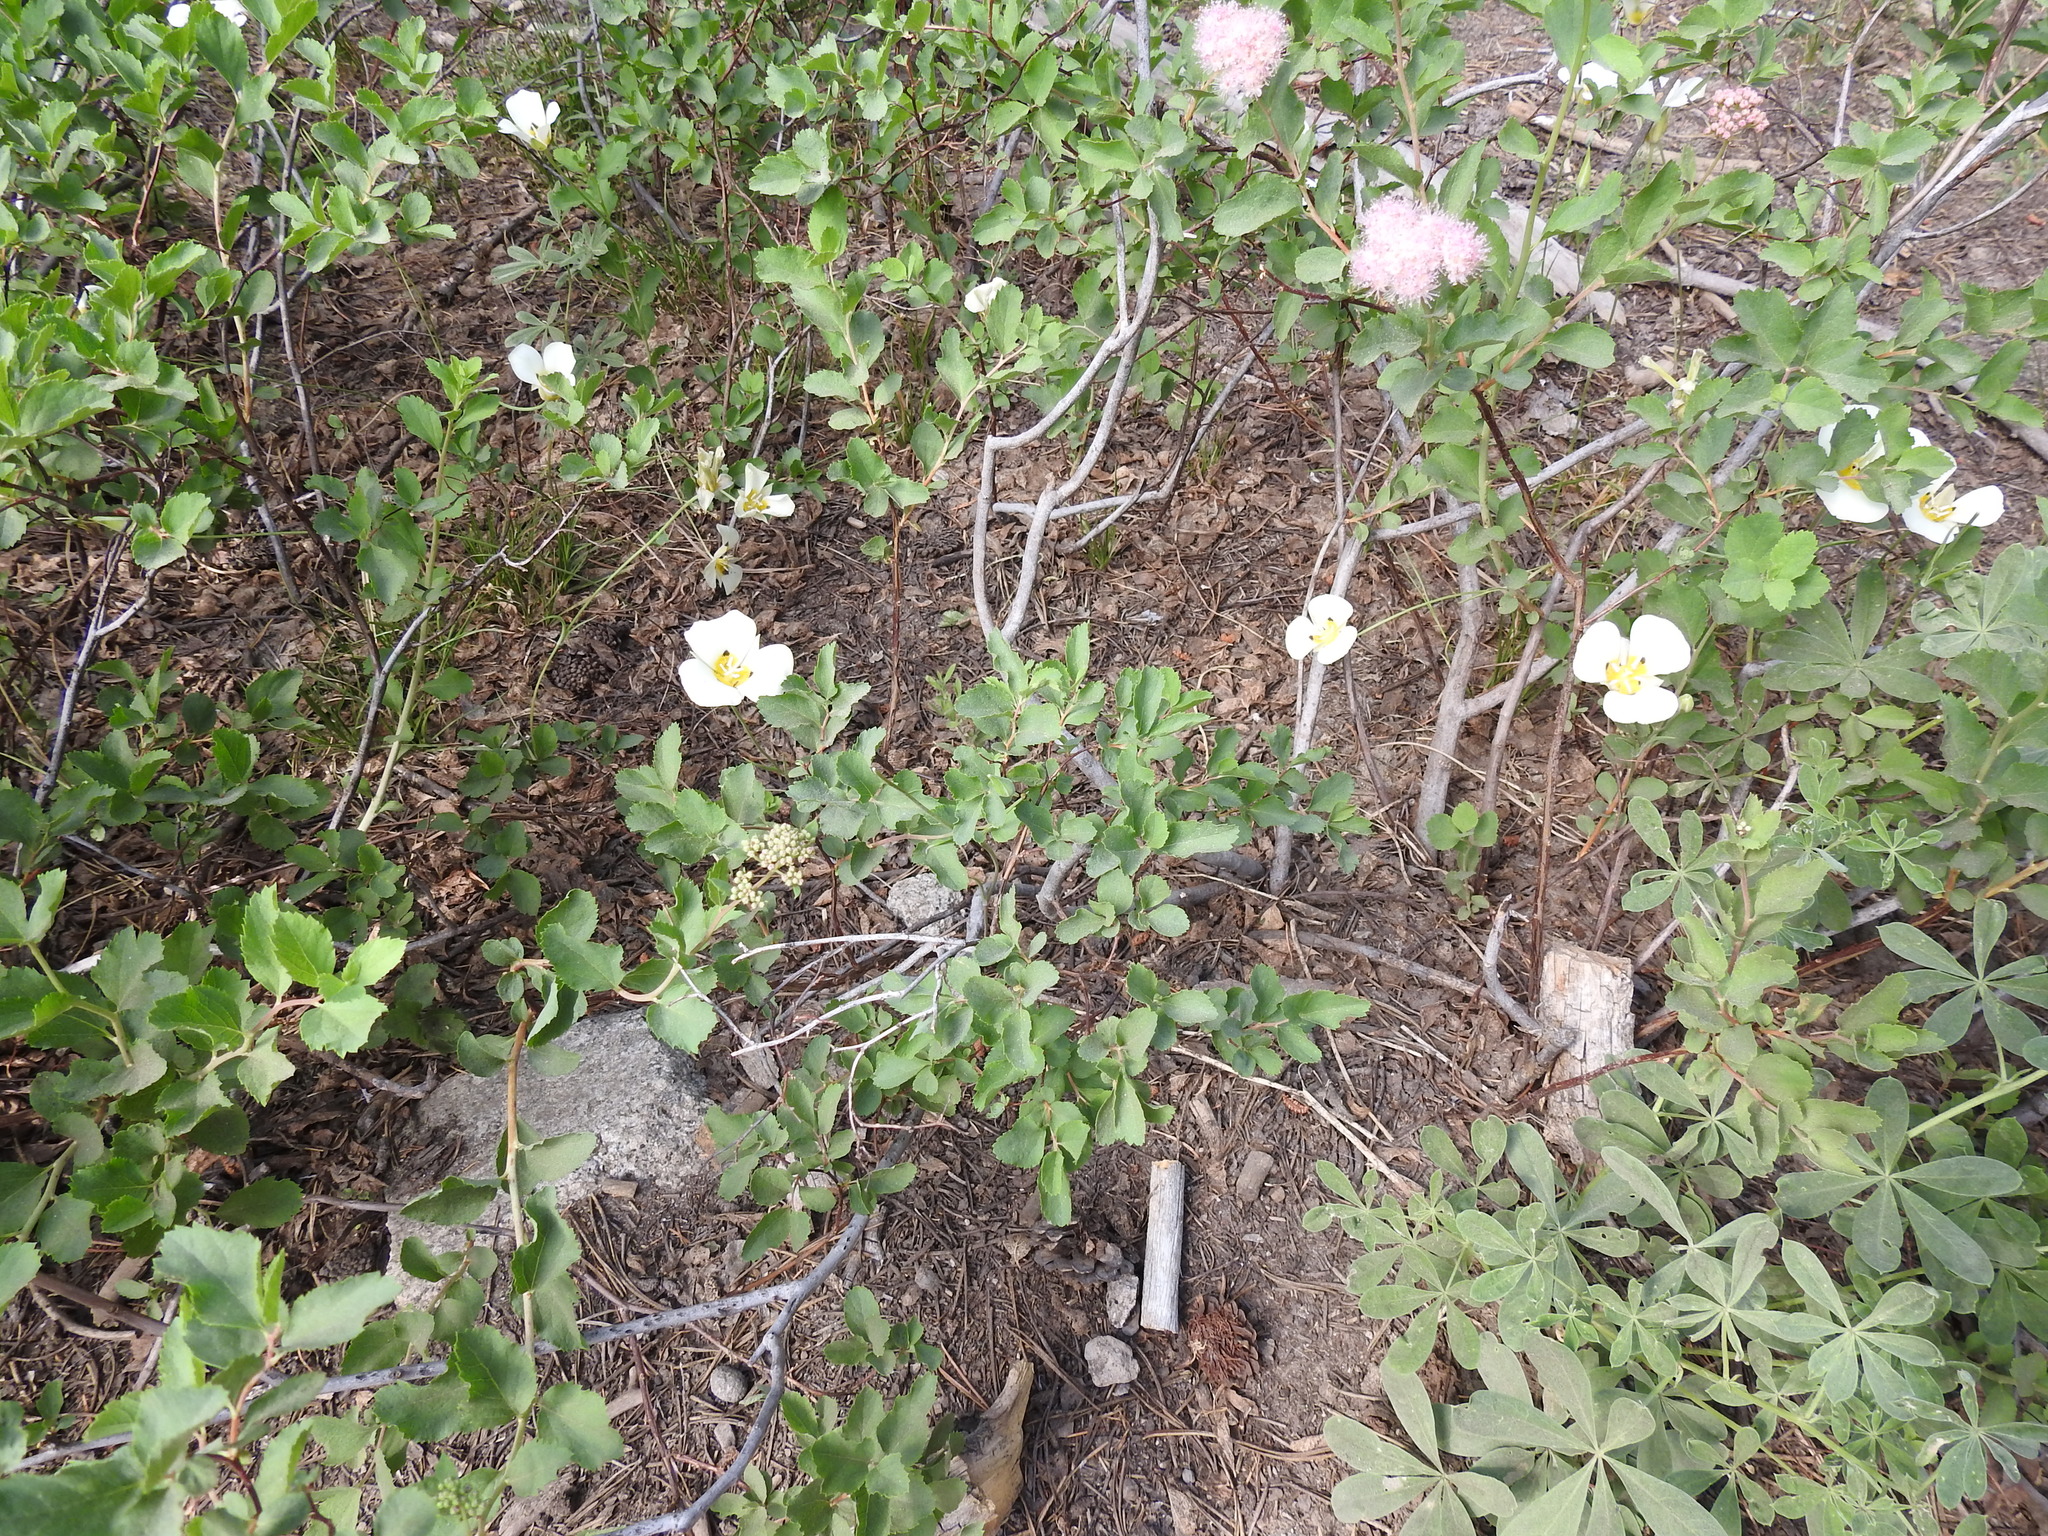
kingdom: Plantae
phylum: Tracheophyta
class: Liliopsida
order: Liliales
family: Liliaceae
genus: Calochortus
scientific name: Calochortus leichtlinii
